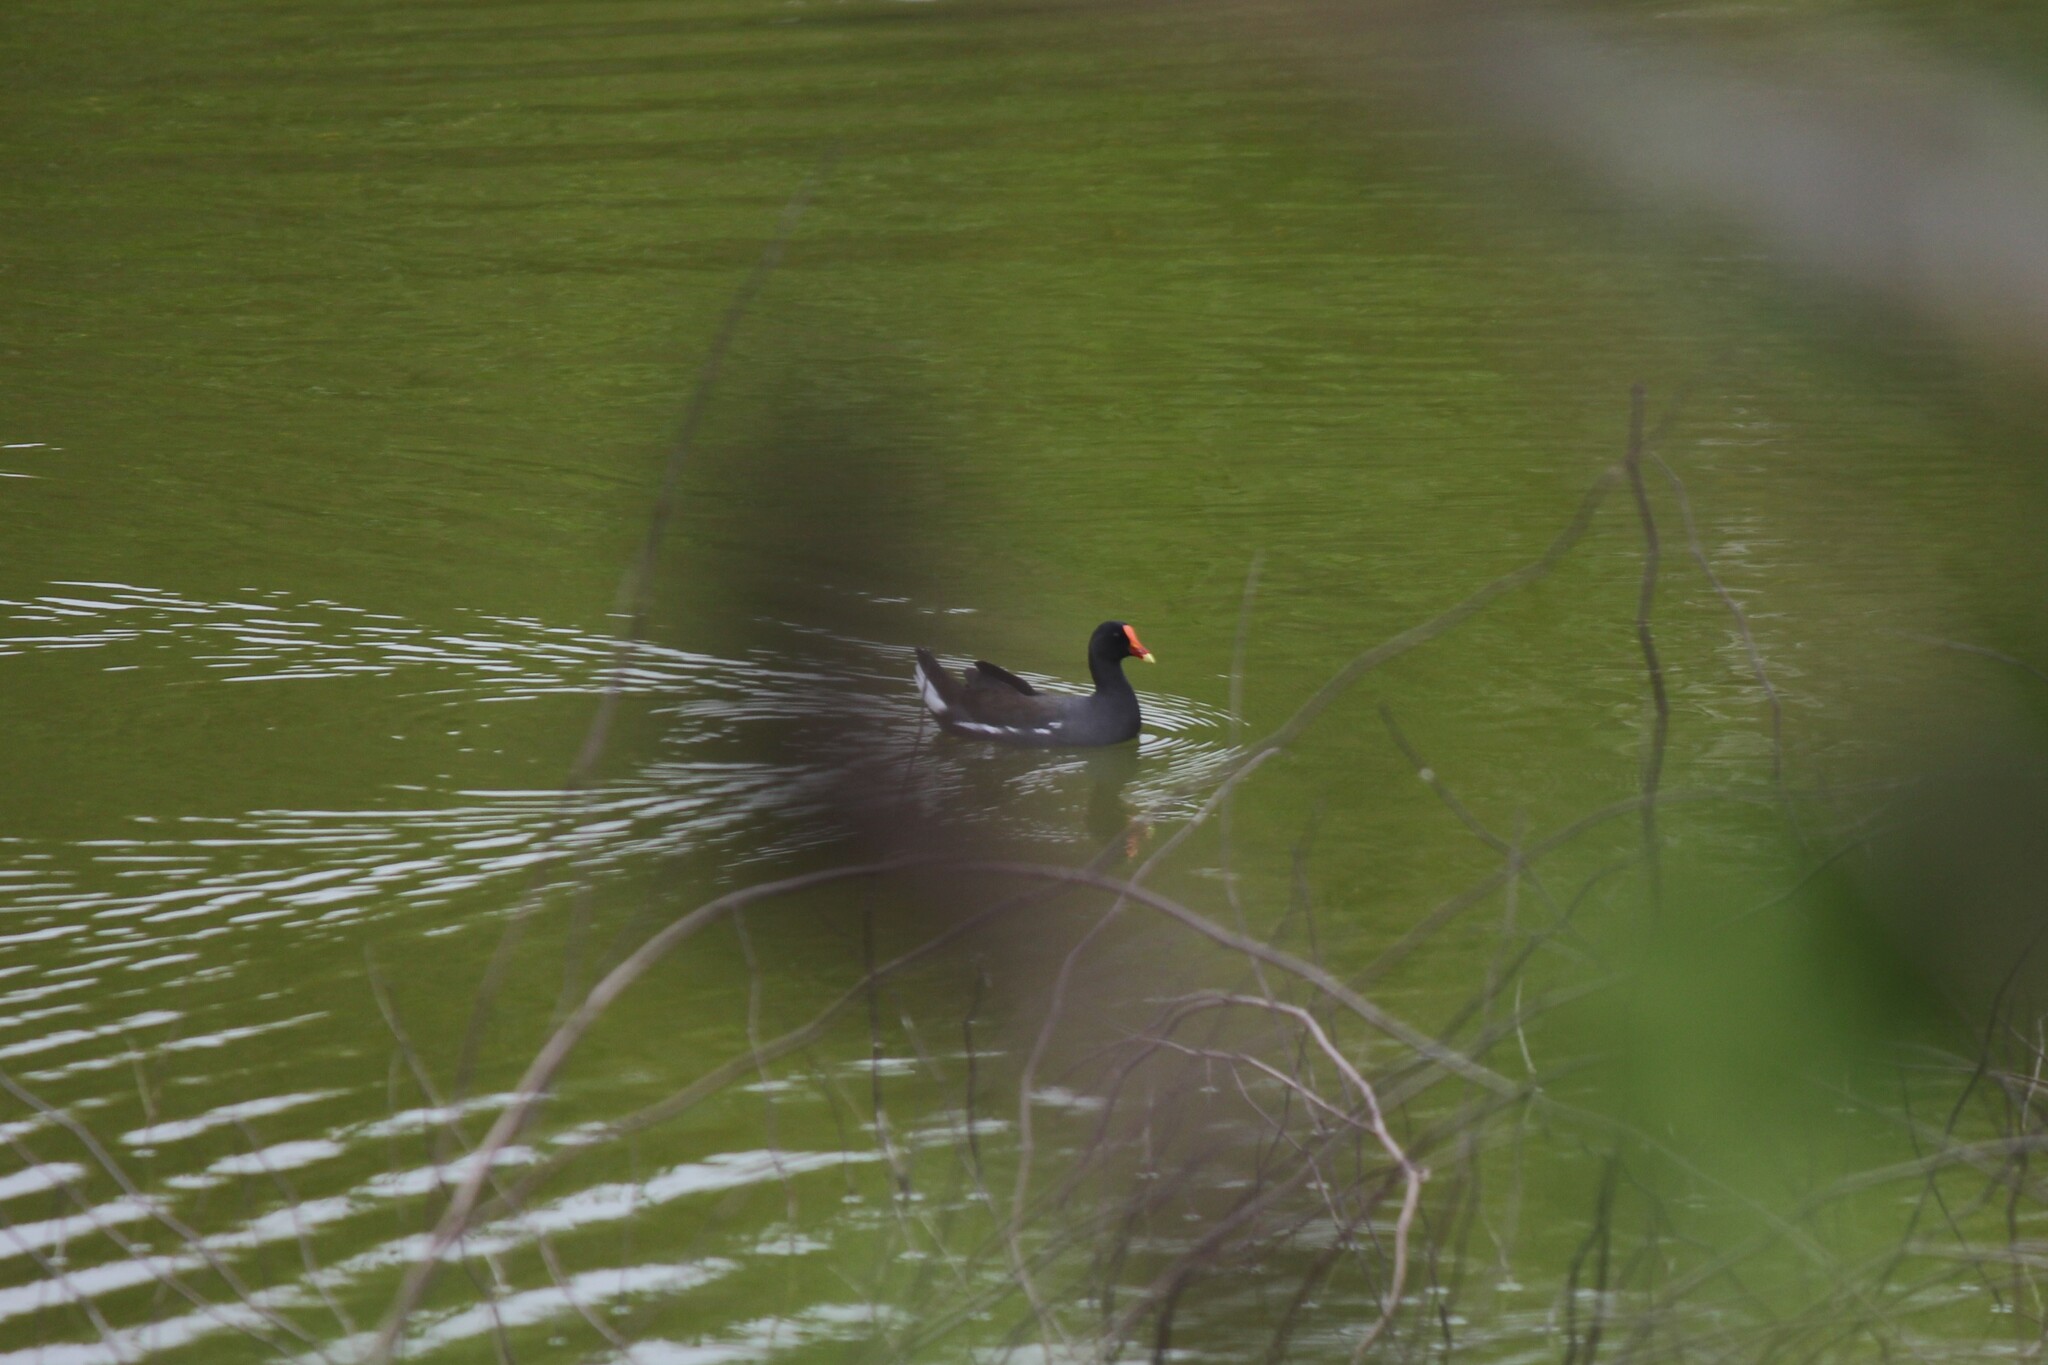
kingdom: Animalia
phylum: Chordata
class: Aves
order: Gruiformes
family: Rallidae
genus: Gallinula
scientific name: Gallinula chloropus
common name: Common moorhen
